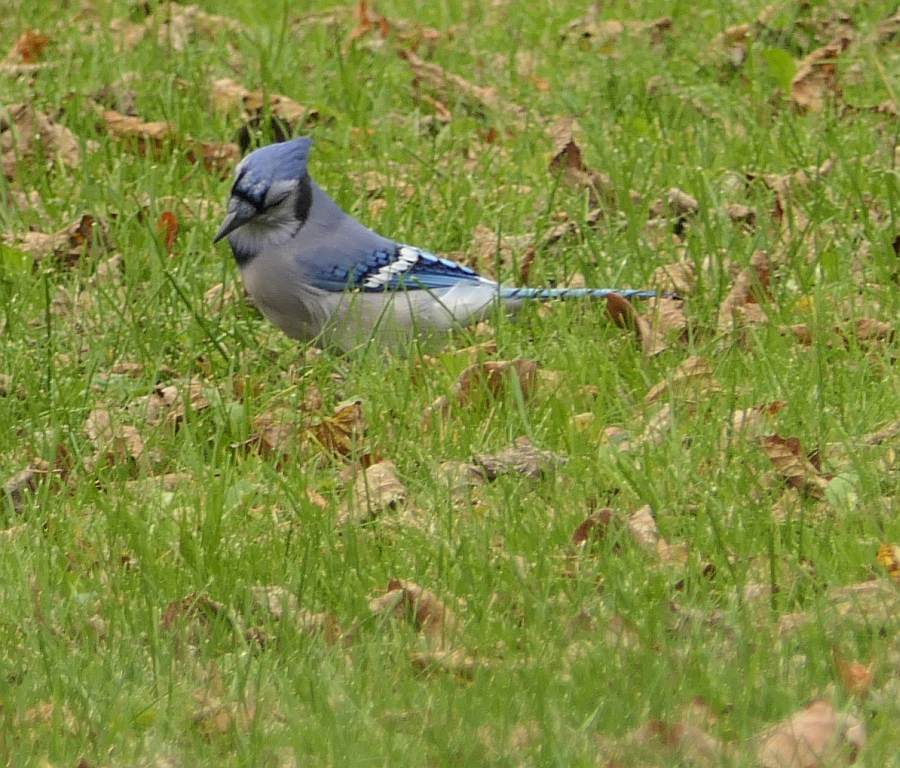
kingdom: Animalia
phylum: Chordata
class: Aves
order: Passeriformes
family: Corvidae
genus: Cyanocitta
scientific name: Cyanocitta cristata
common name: Blue jay
